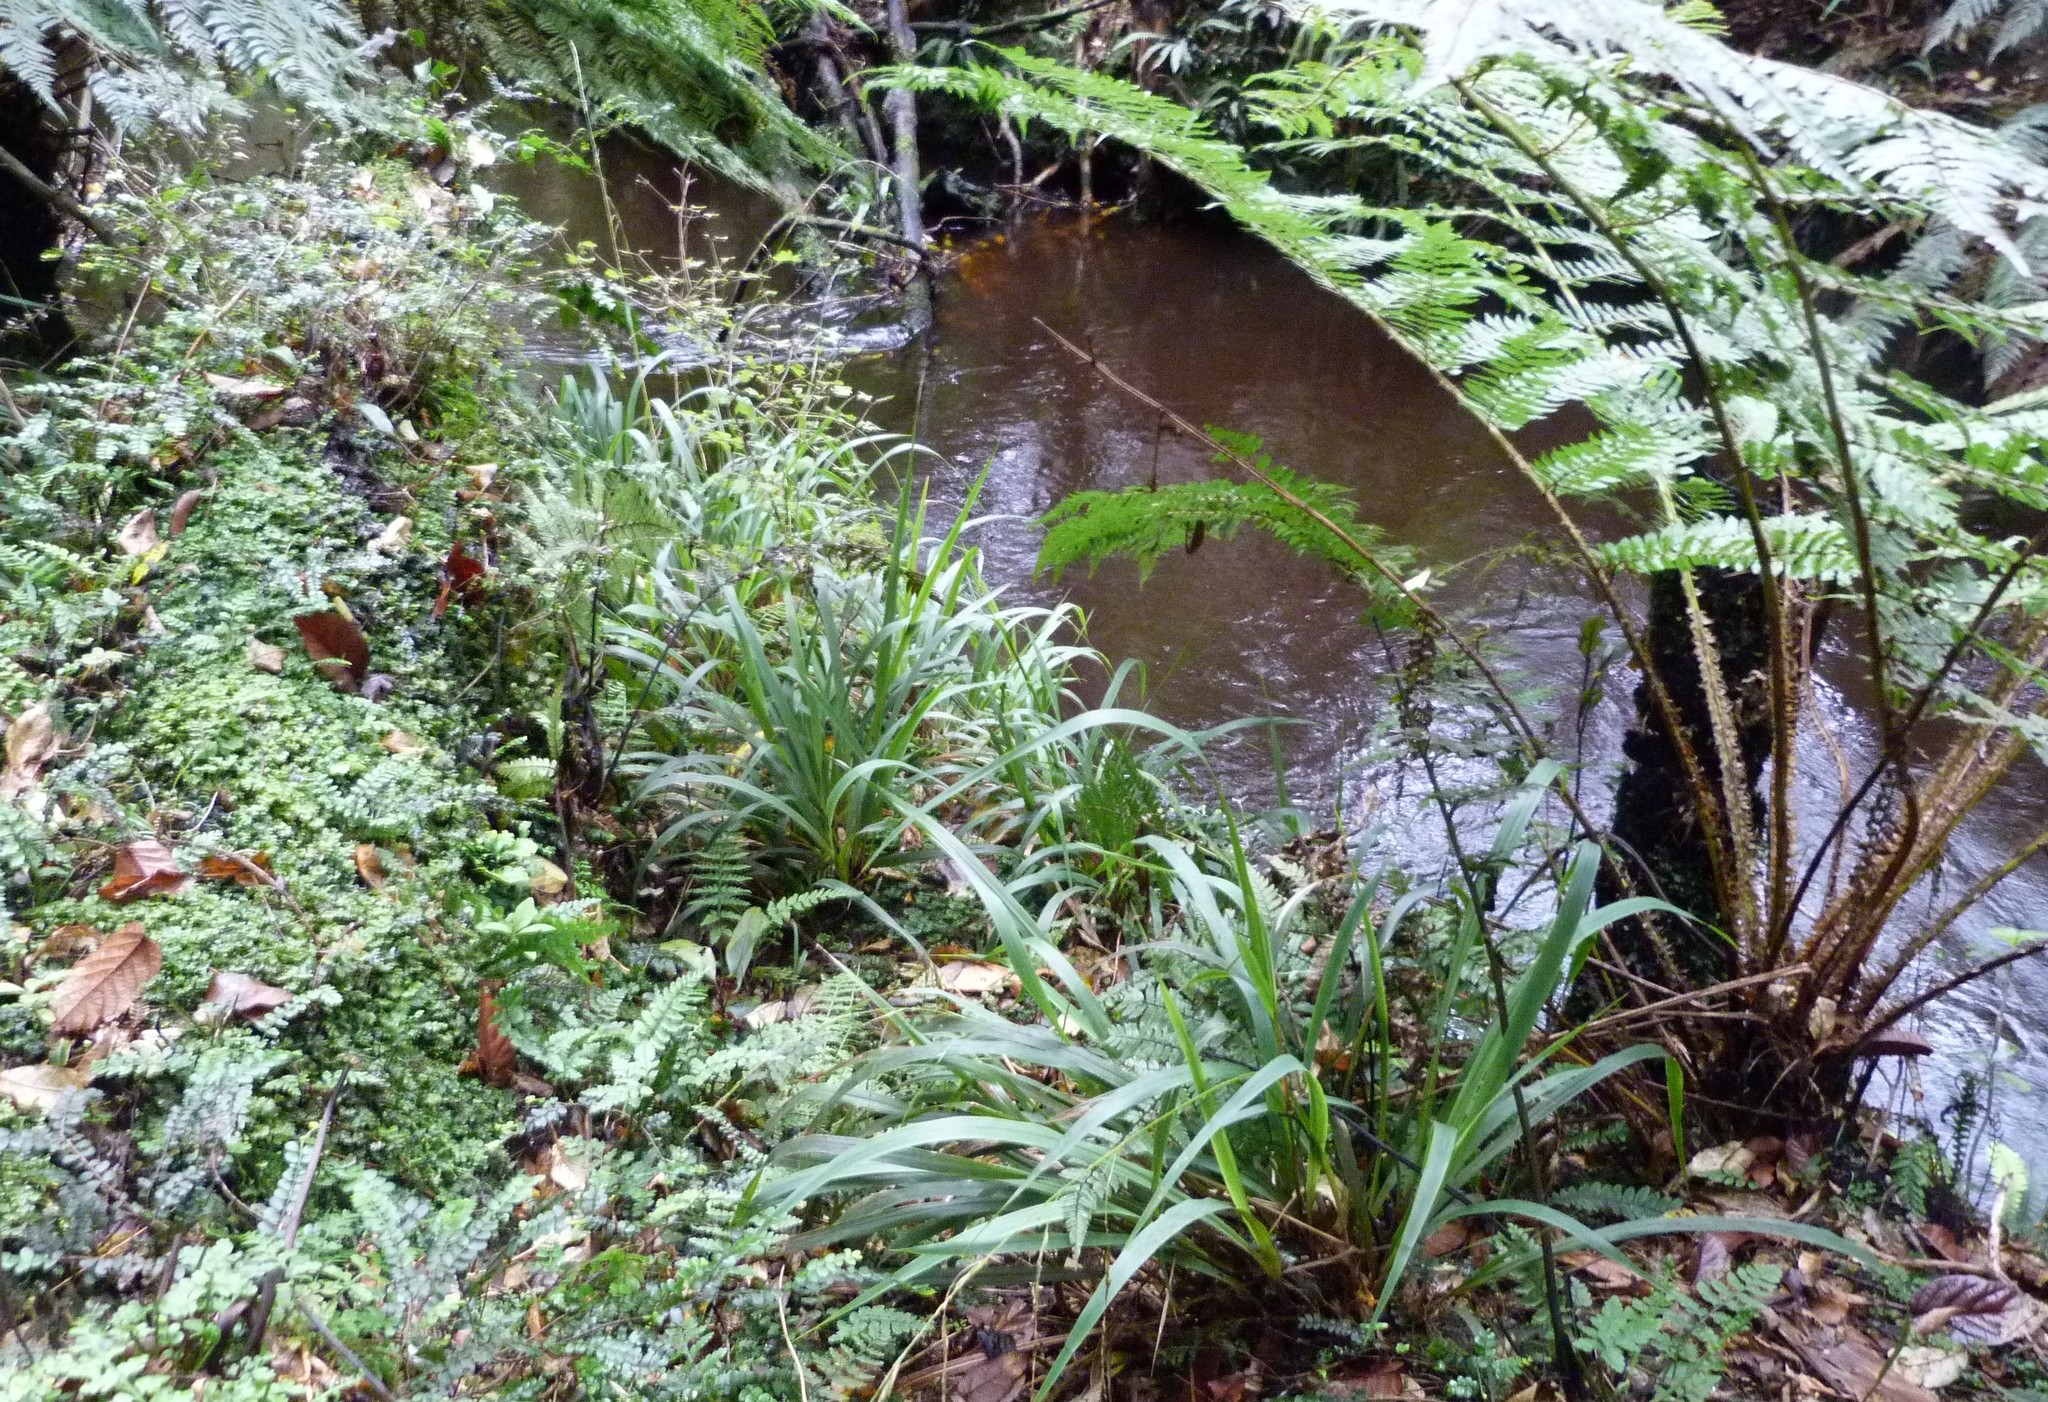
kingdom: Plantae
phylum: Tracheophyta
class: Liliopsida
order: Poales
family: Poaceae
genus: Ehrharta
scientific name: Ehrharta diplax
